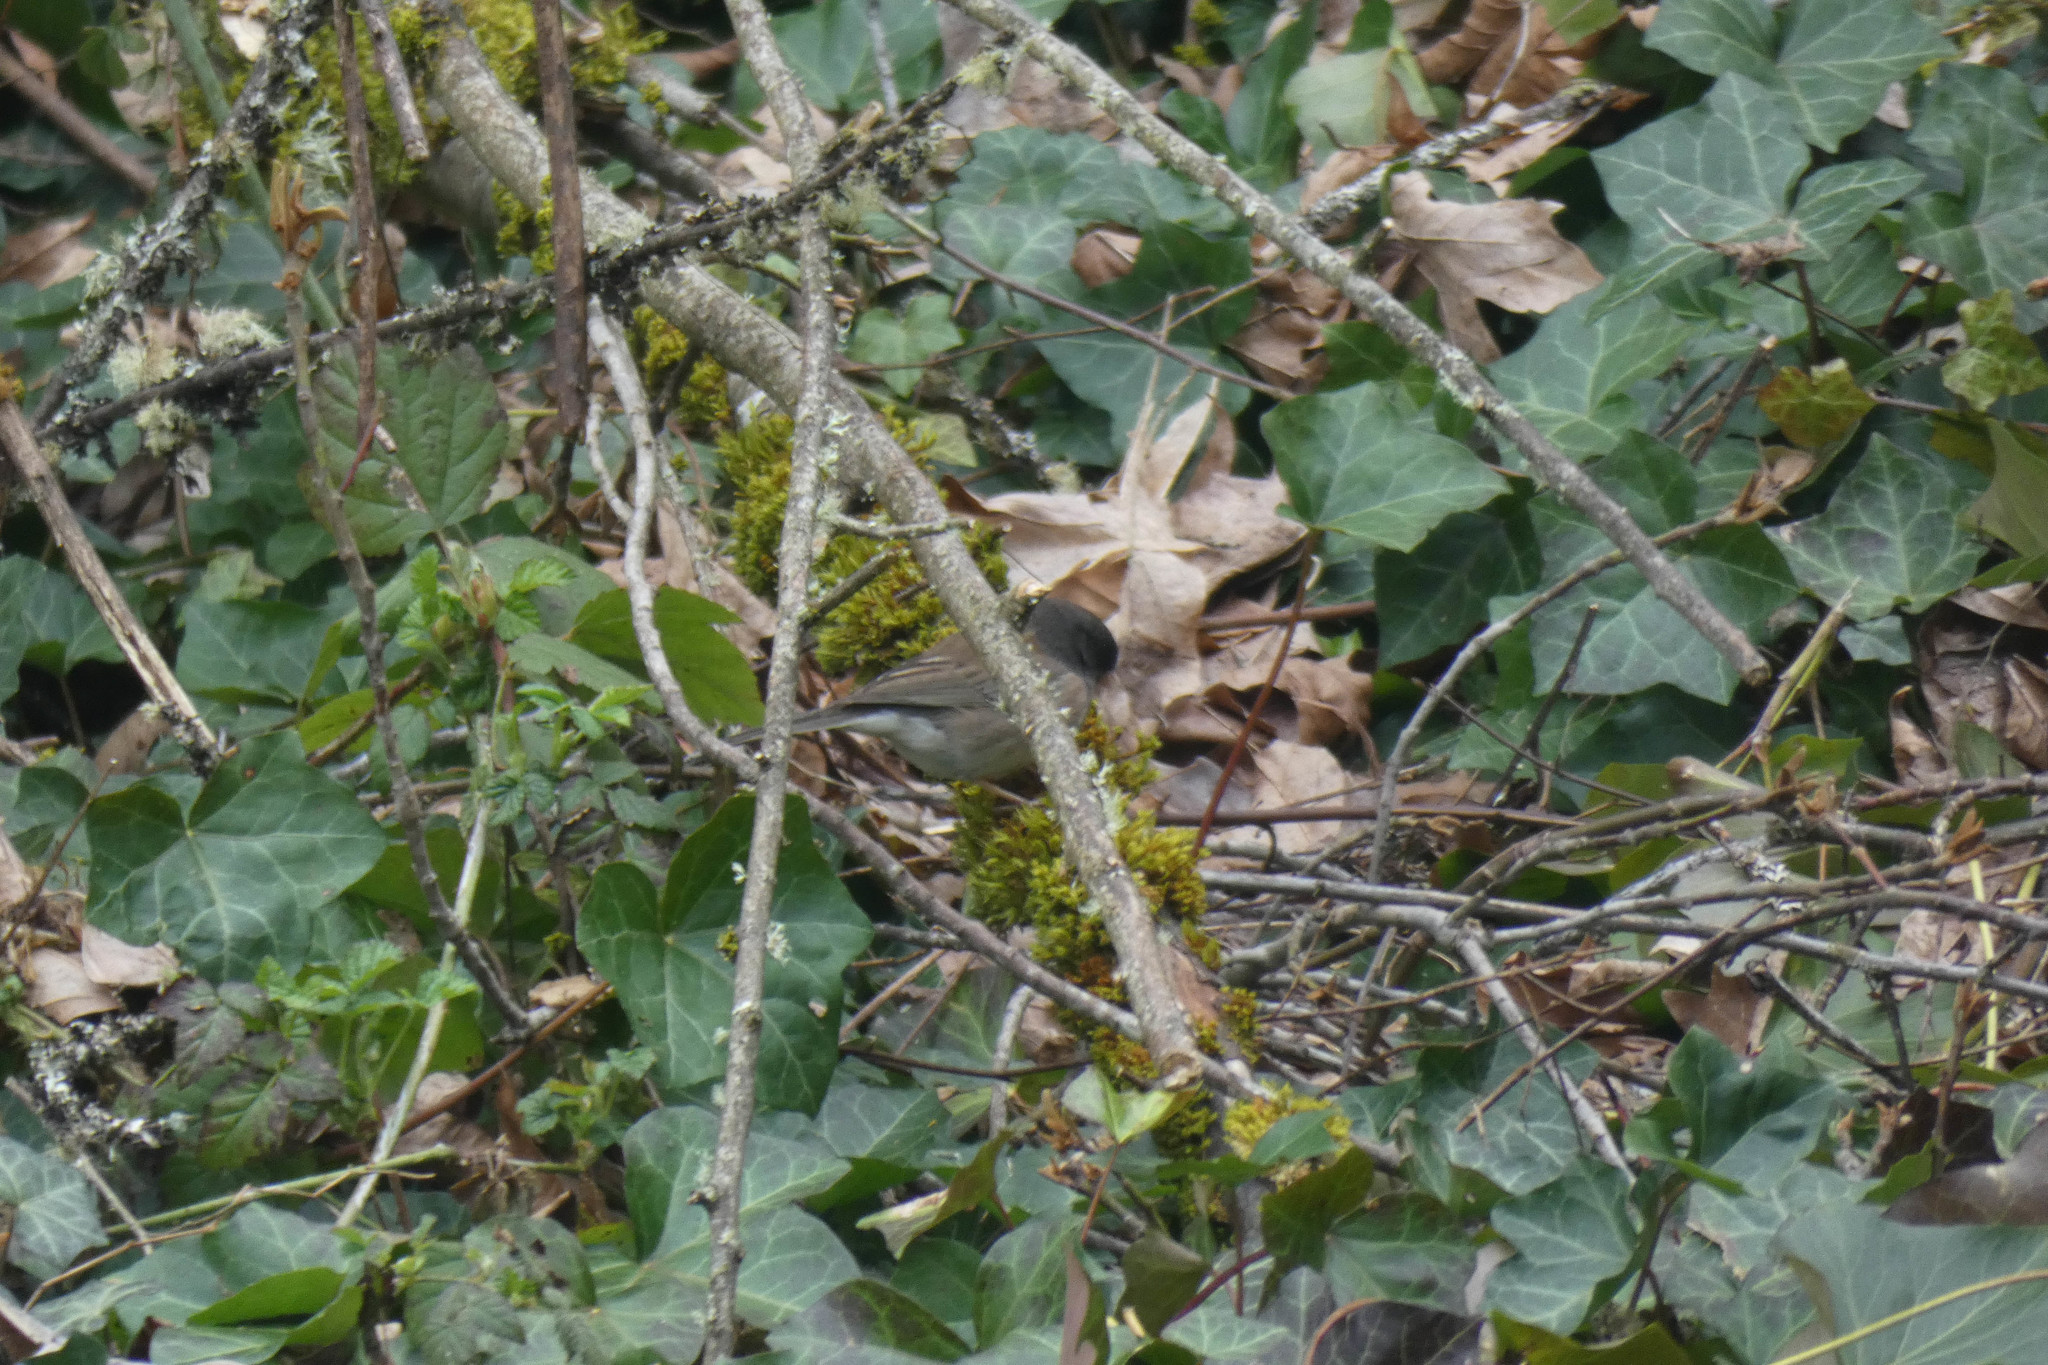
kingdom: Animalia
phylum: Chordata
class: Aves
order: Passeriformes
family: Passerellidae
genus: Junco
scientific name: Junco hyemalis
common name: Dark-eyed junco
